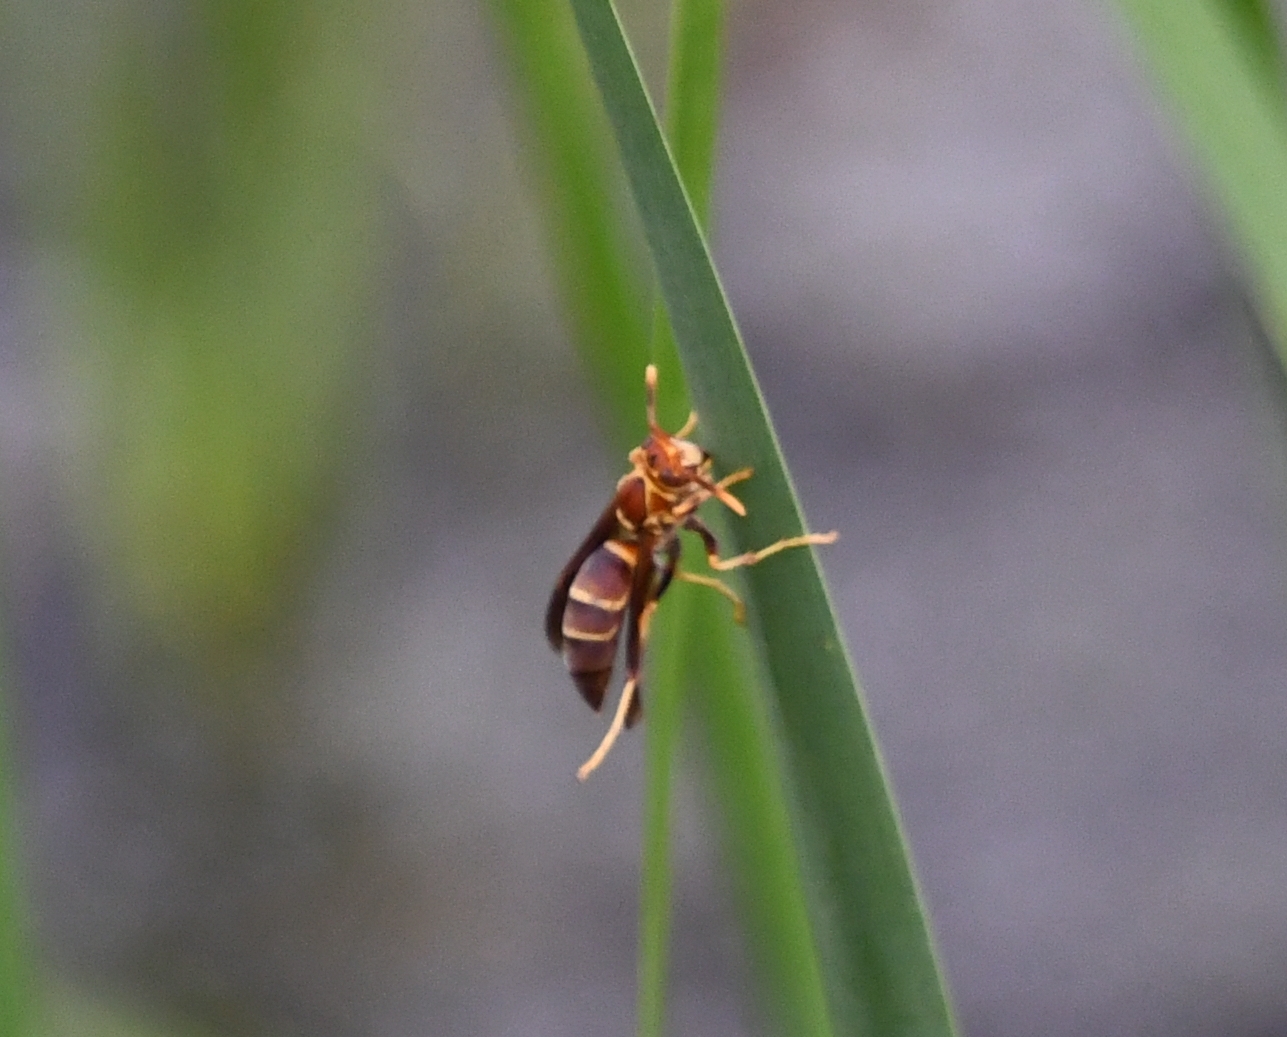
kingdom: Animalia
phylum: Arthropoda
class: Insecta
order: Hymenoptera
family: Eumenidae
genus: Polistes
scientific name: Polistes arizonensis
